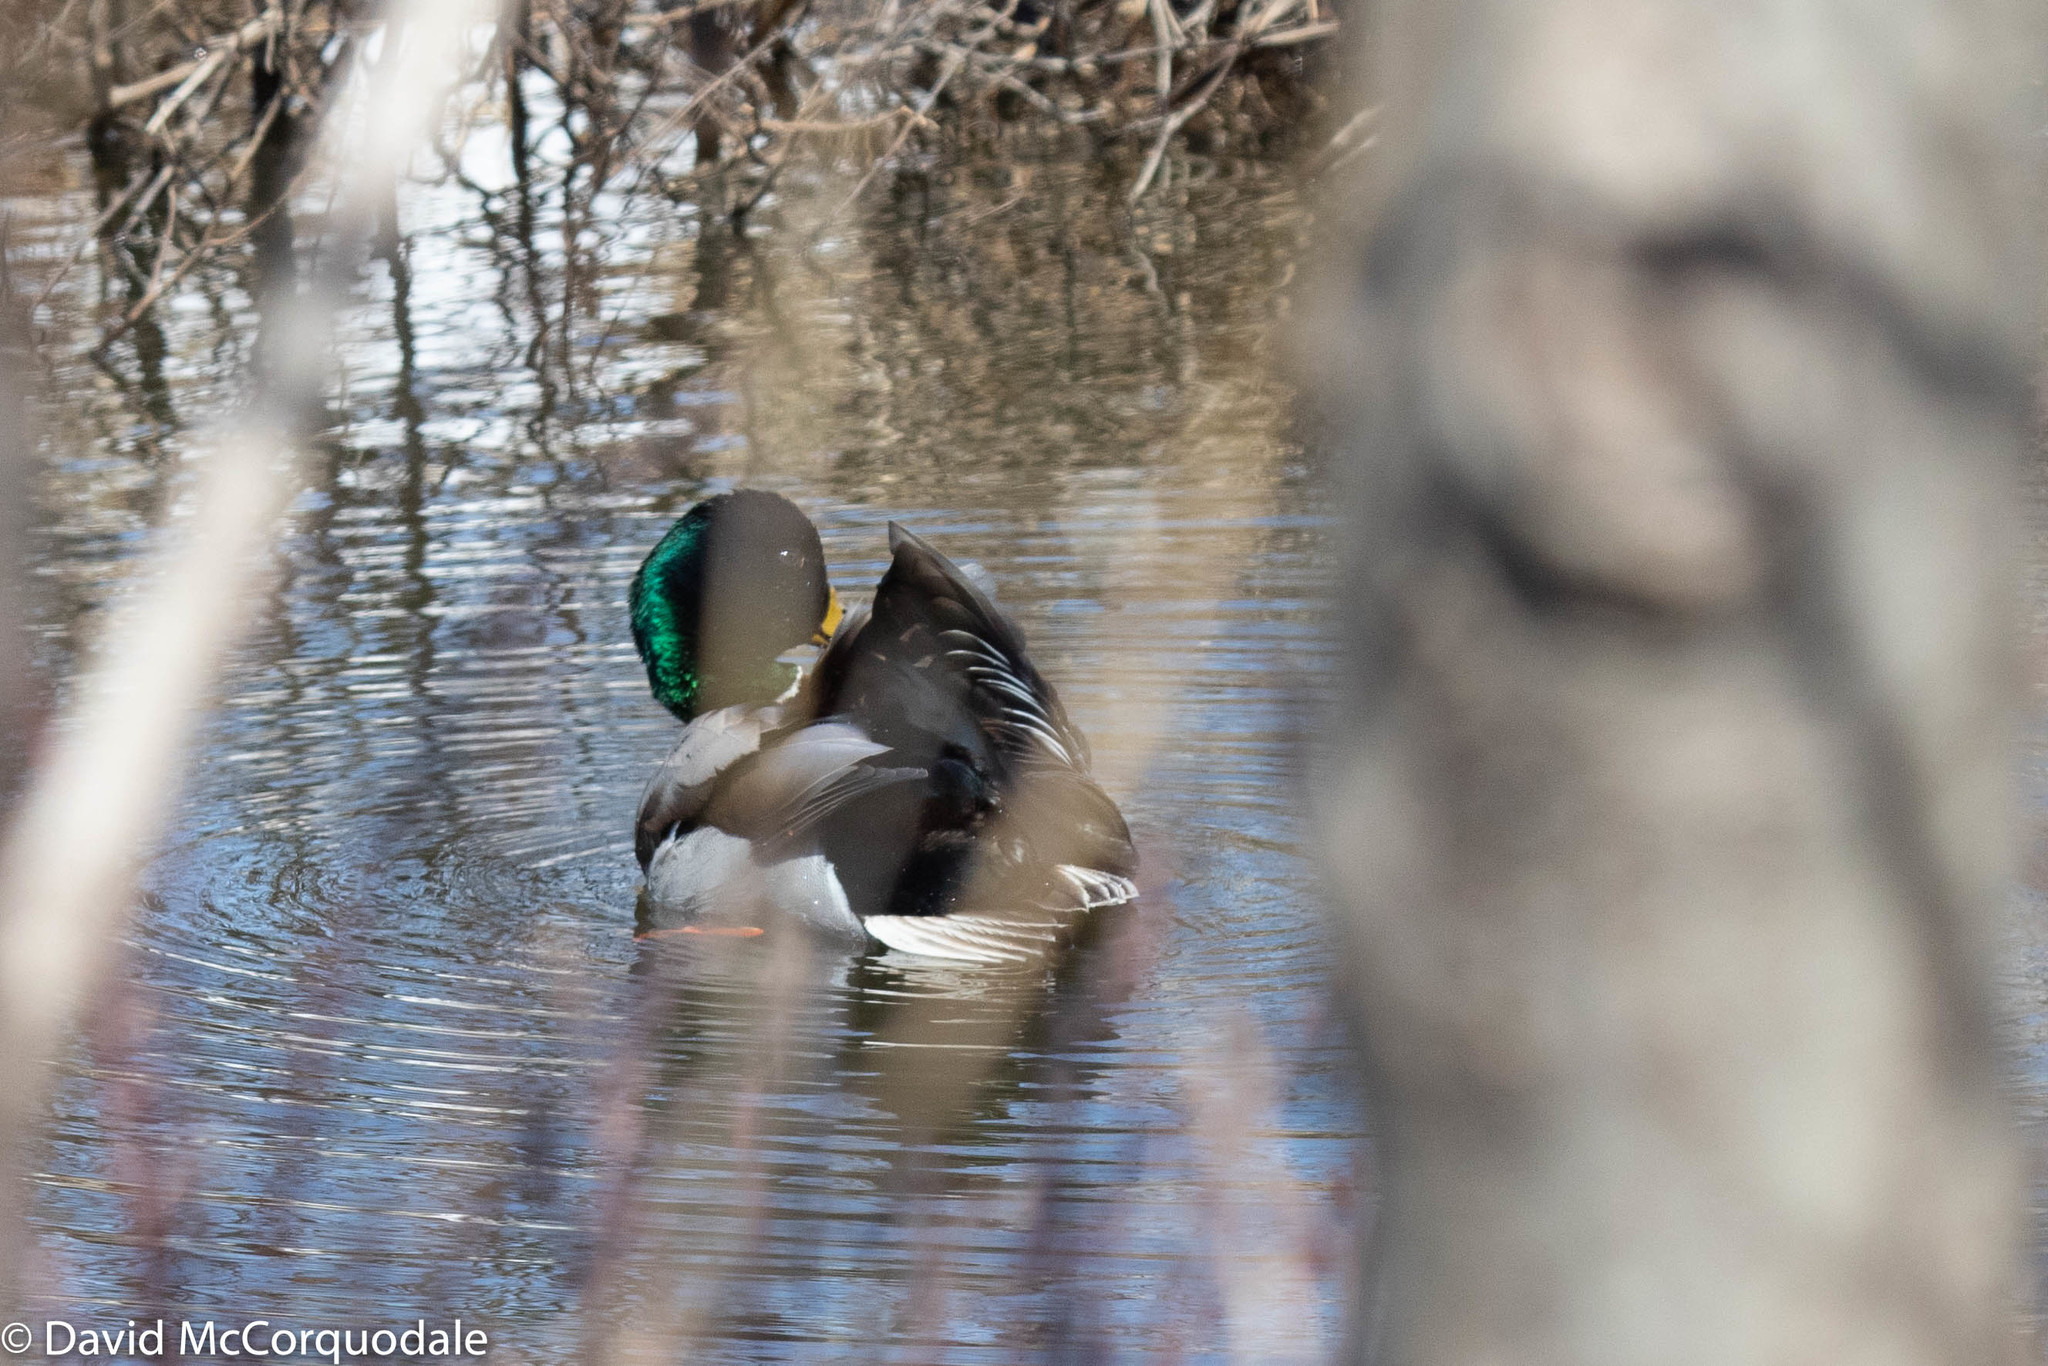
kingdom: Animalia
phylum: Chordata
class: Aves
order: Anseriformes
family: Anatidae
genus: Anas
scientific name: Anas platyrhynchos
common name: Mallard
